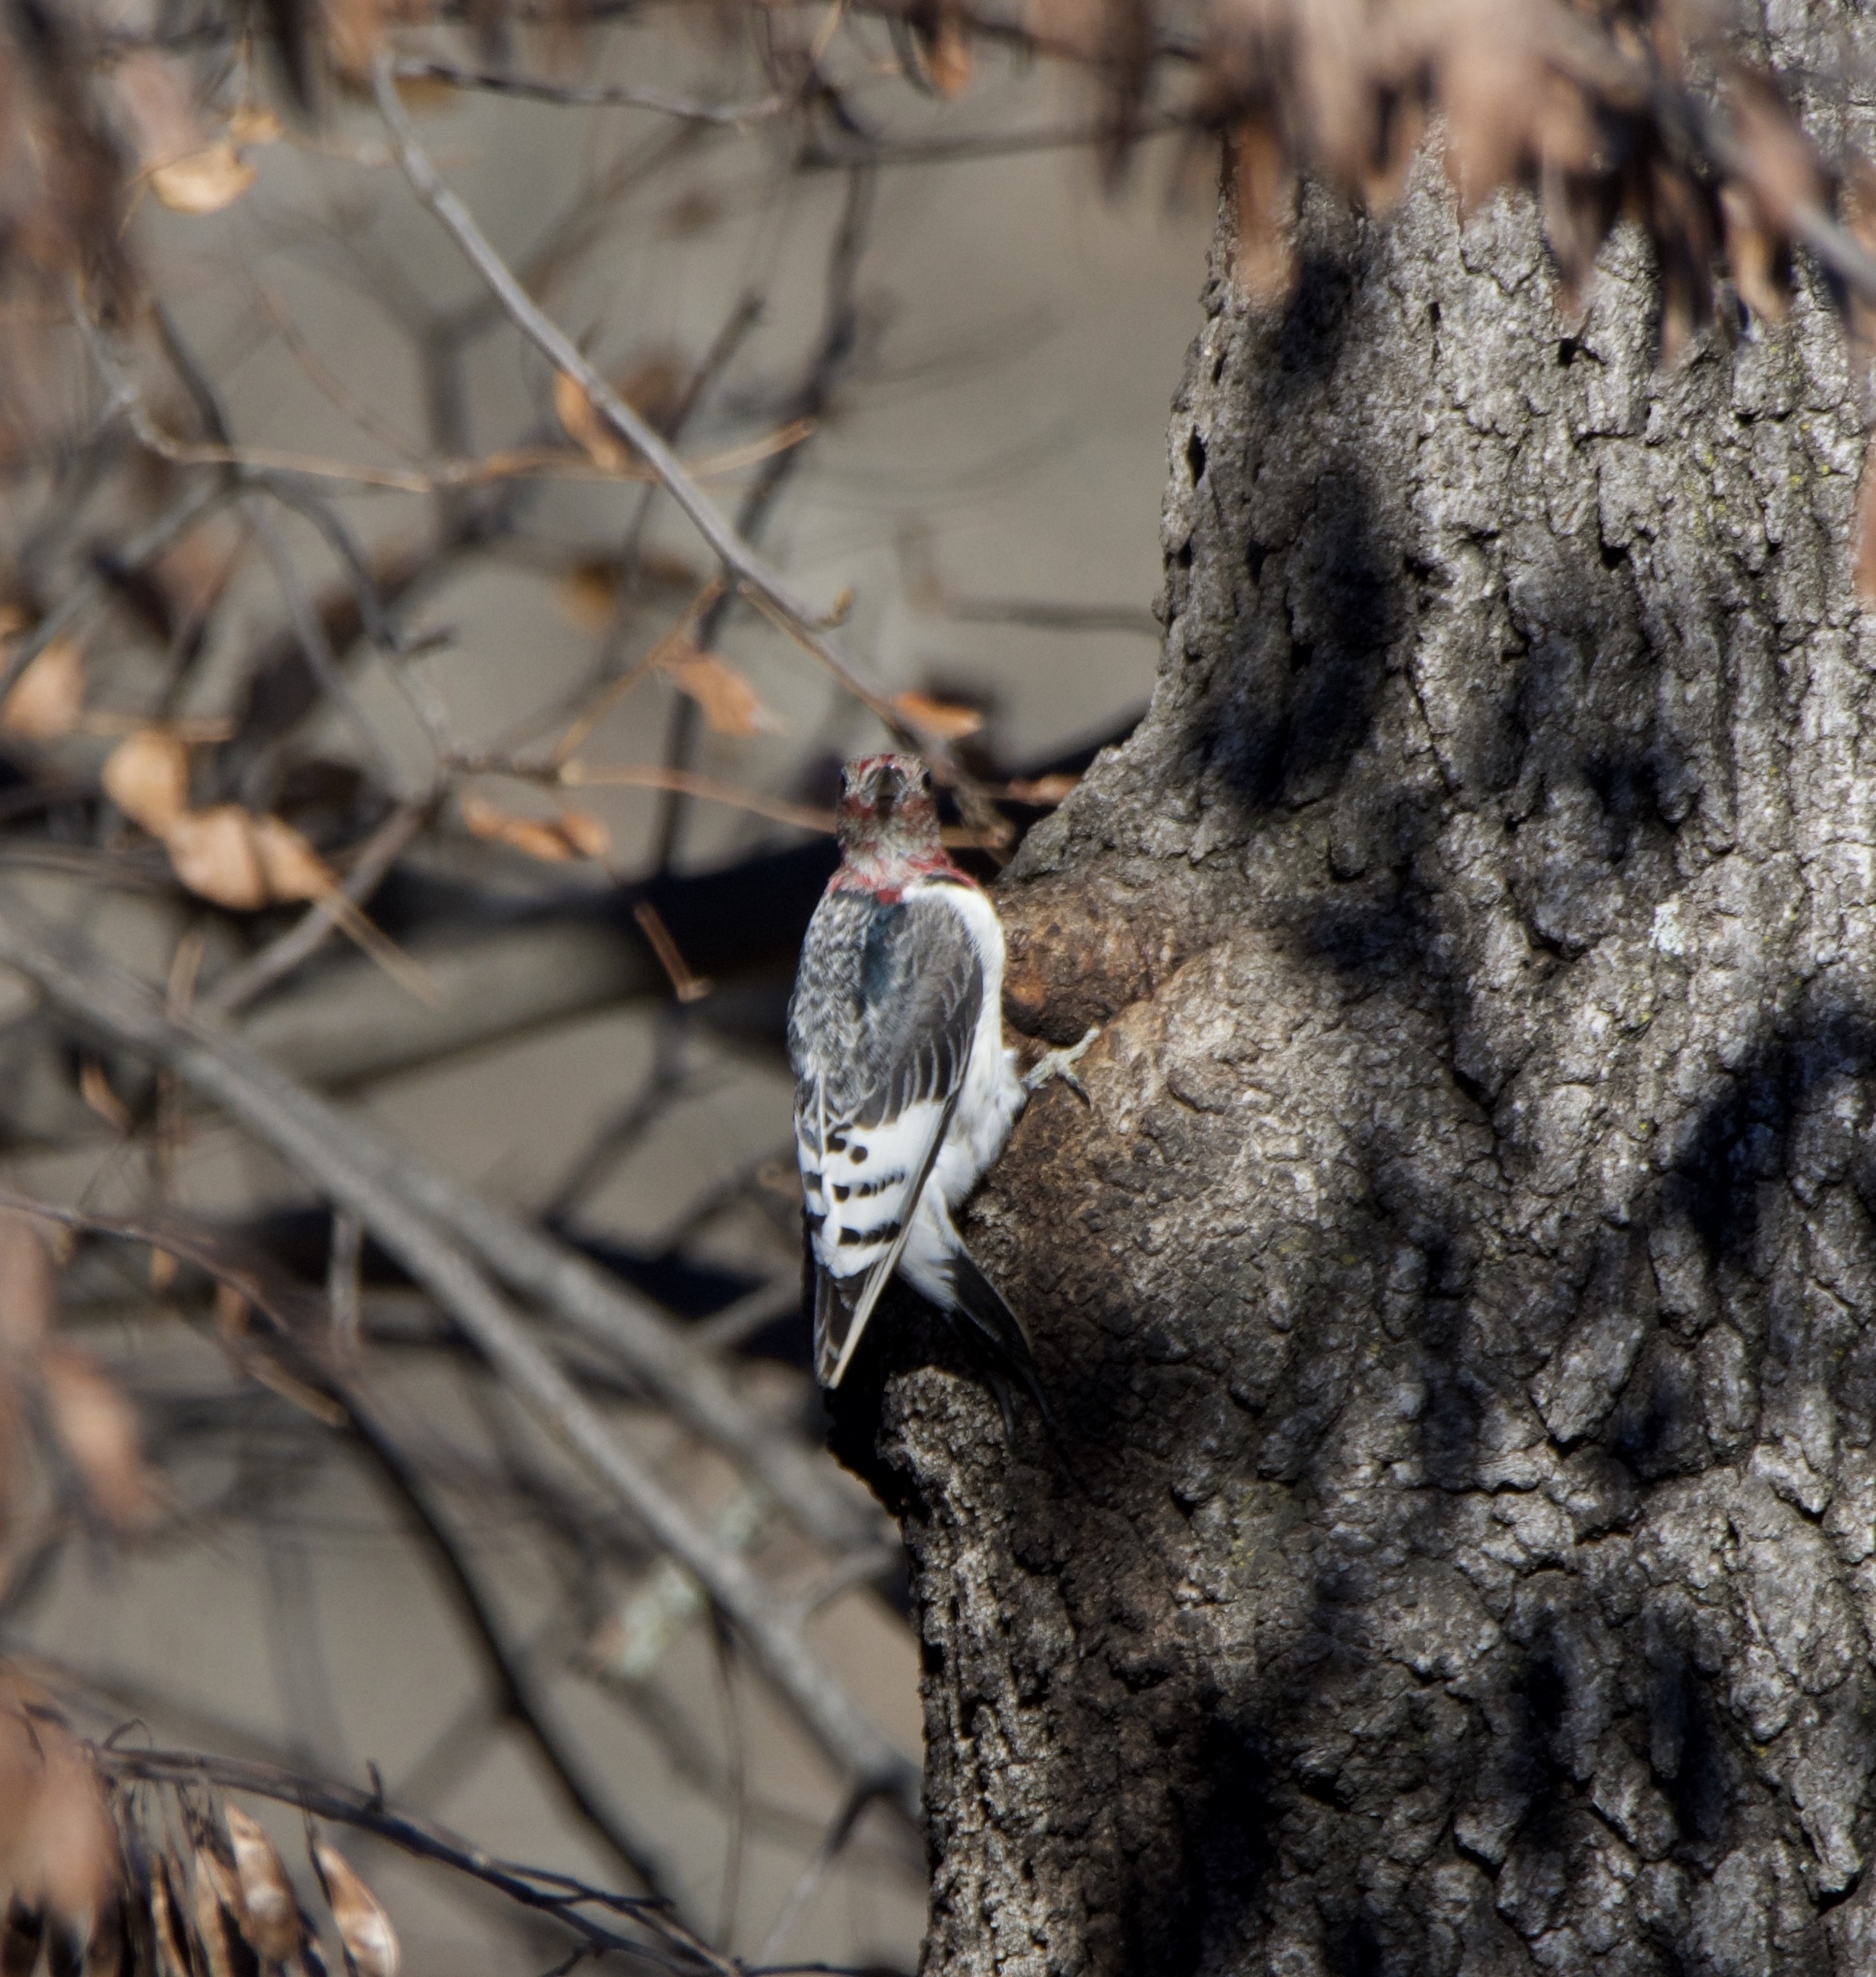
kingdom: Animalia
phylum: Chordata
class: Aves
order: Piciformes
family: Picidae
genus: Melanerpes
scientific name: Melanerpes erythrocephalus
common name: Red-headed woodpecker
